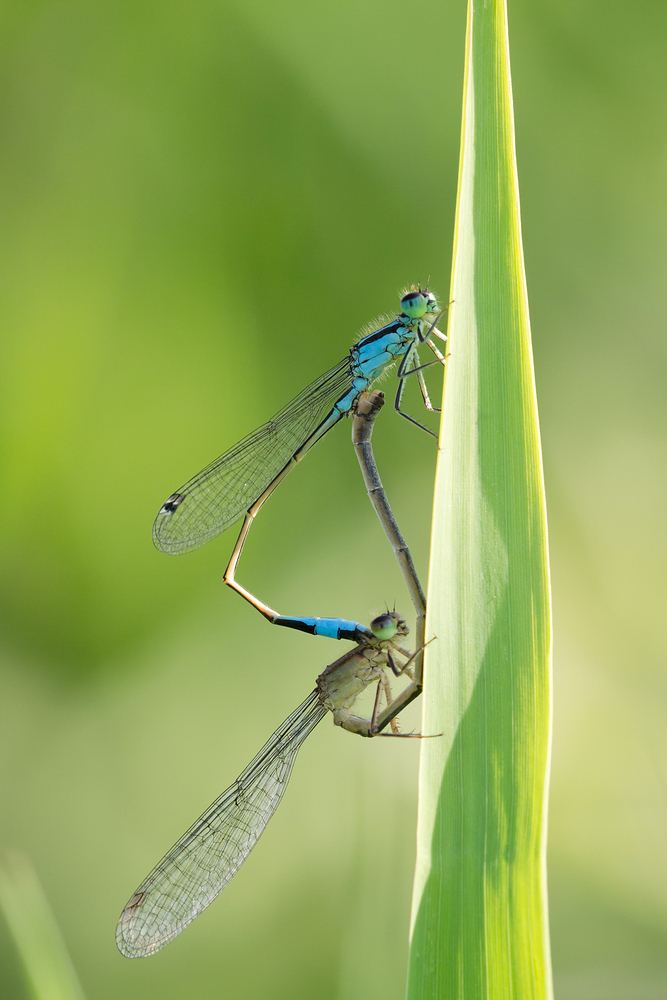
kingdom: Animalia
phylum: Arthropoda
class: Insecta
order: Odonata
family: Coenagrionidae
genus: Ischnura
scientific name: Ischnura elegans
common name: Blue-tailed damselfly
